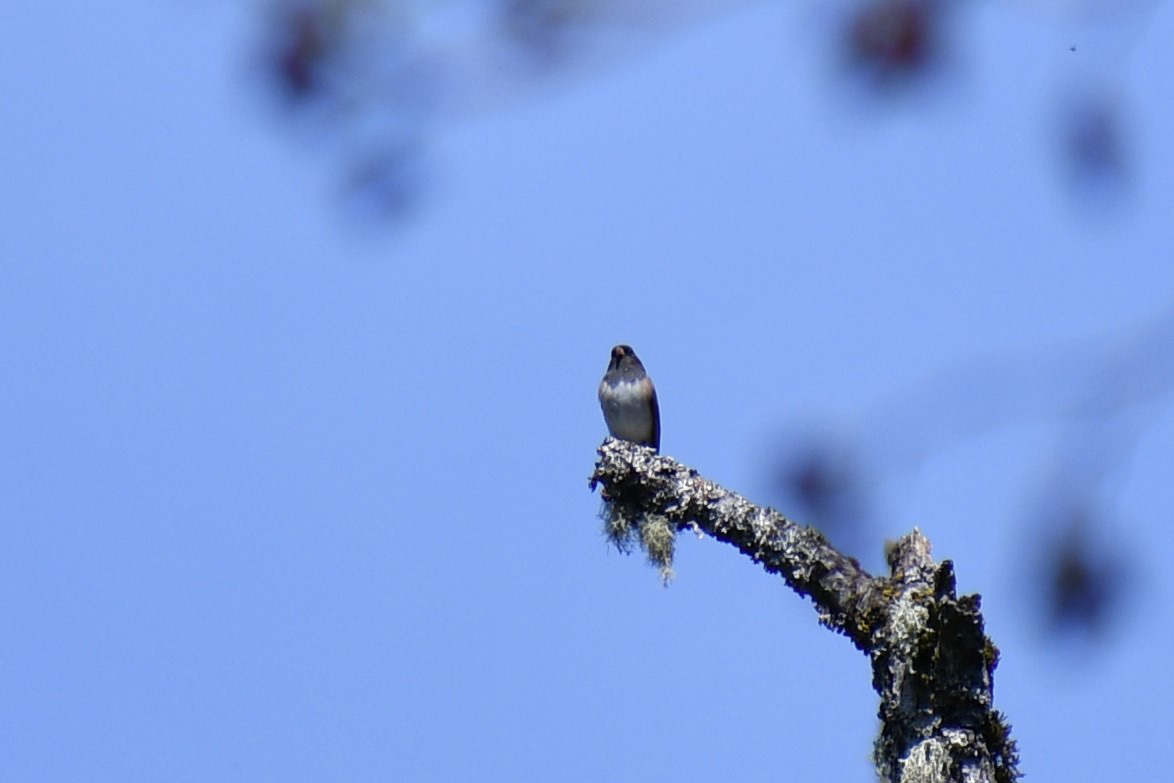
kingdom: Animalia
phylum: Chordata
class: Aves
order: Passeriformes
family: Passerellidae
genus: Junco
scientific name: Junco hyemalis
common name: Dark-eyed junco
